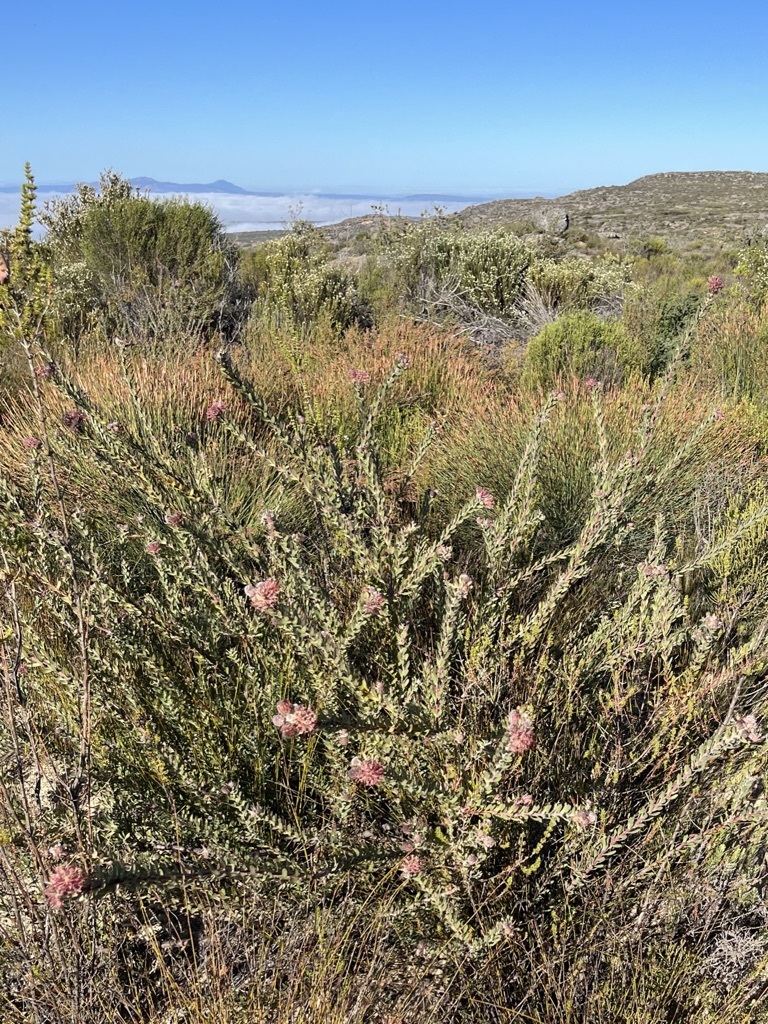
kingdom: Plantae
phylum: Tracheophyta
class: Magnoliopsida
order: Proteales
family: Proteaceae
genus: Leucospermum
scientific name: Leucospermum calligerum
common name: Arid pincushion
